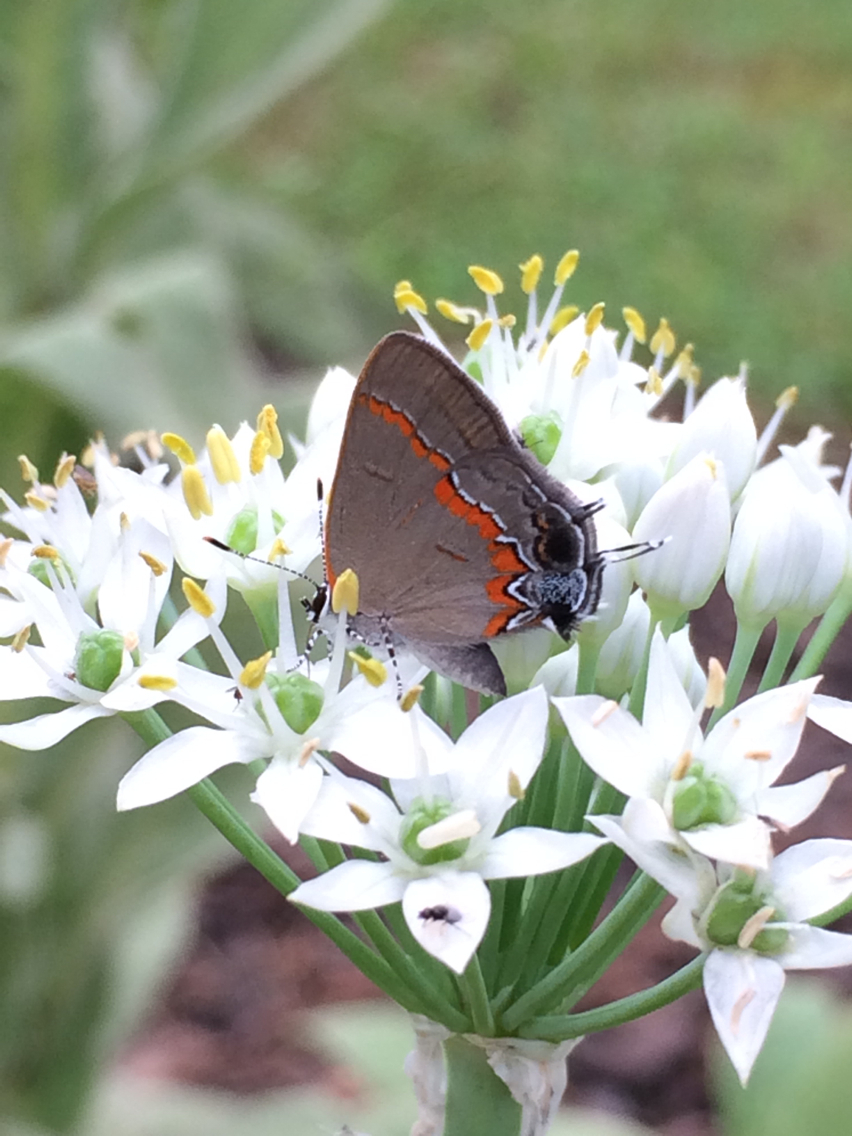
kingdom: Animalia
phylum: Arthropoda
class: Insecta
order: Lepidoptera
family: Lycaenidae
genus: Calycopis
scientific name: Calycopis cecrops
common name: Red-banded hairstreak
